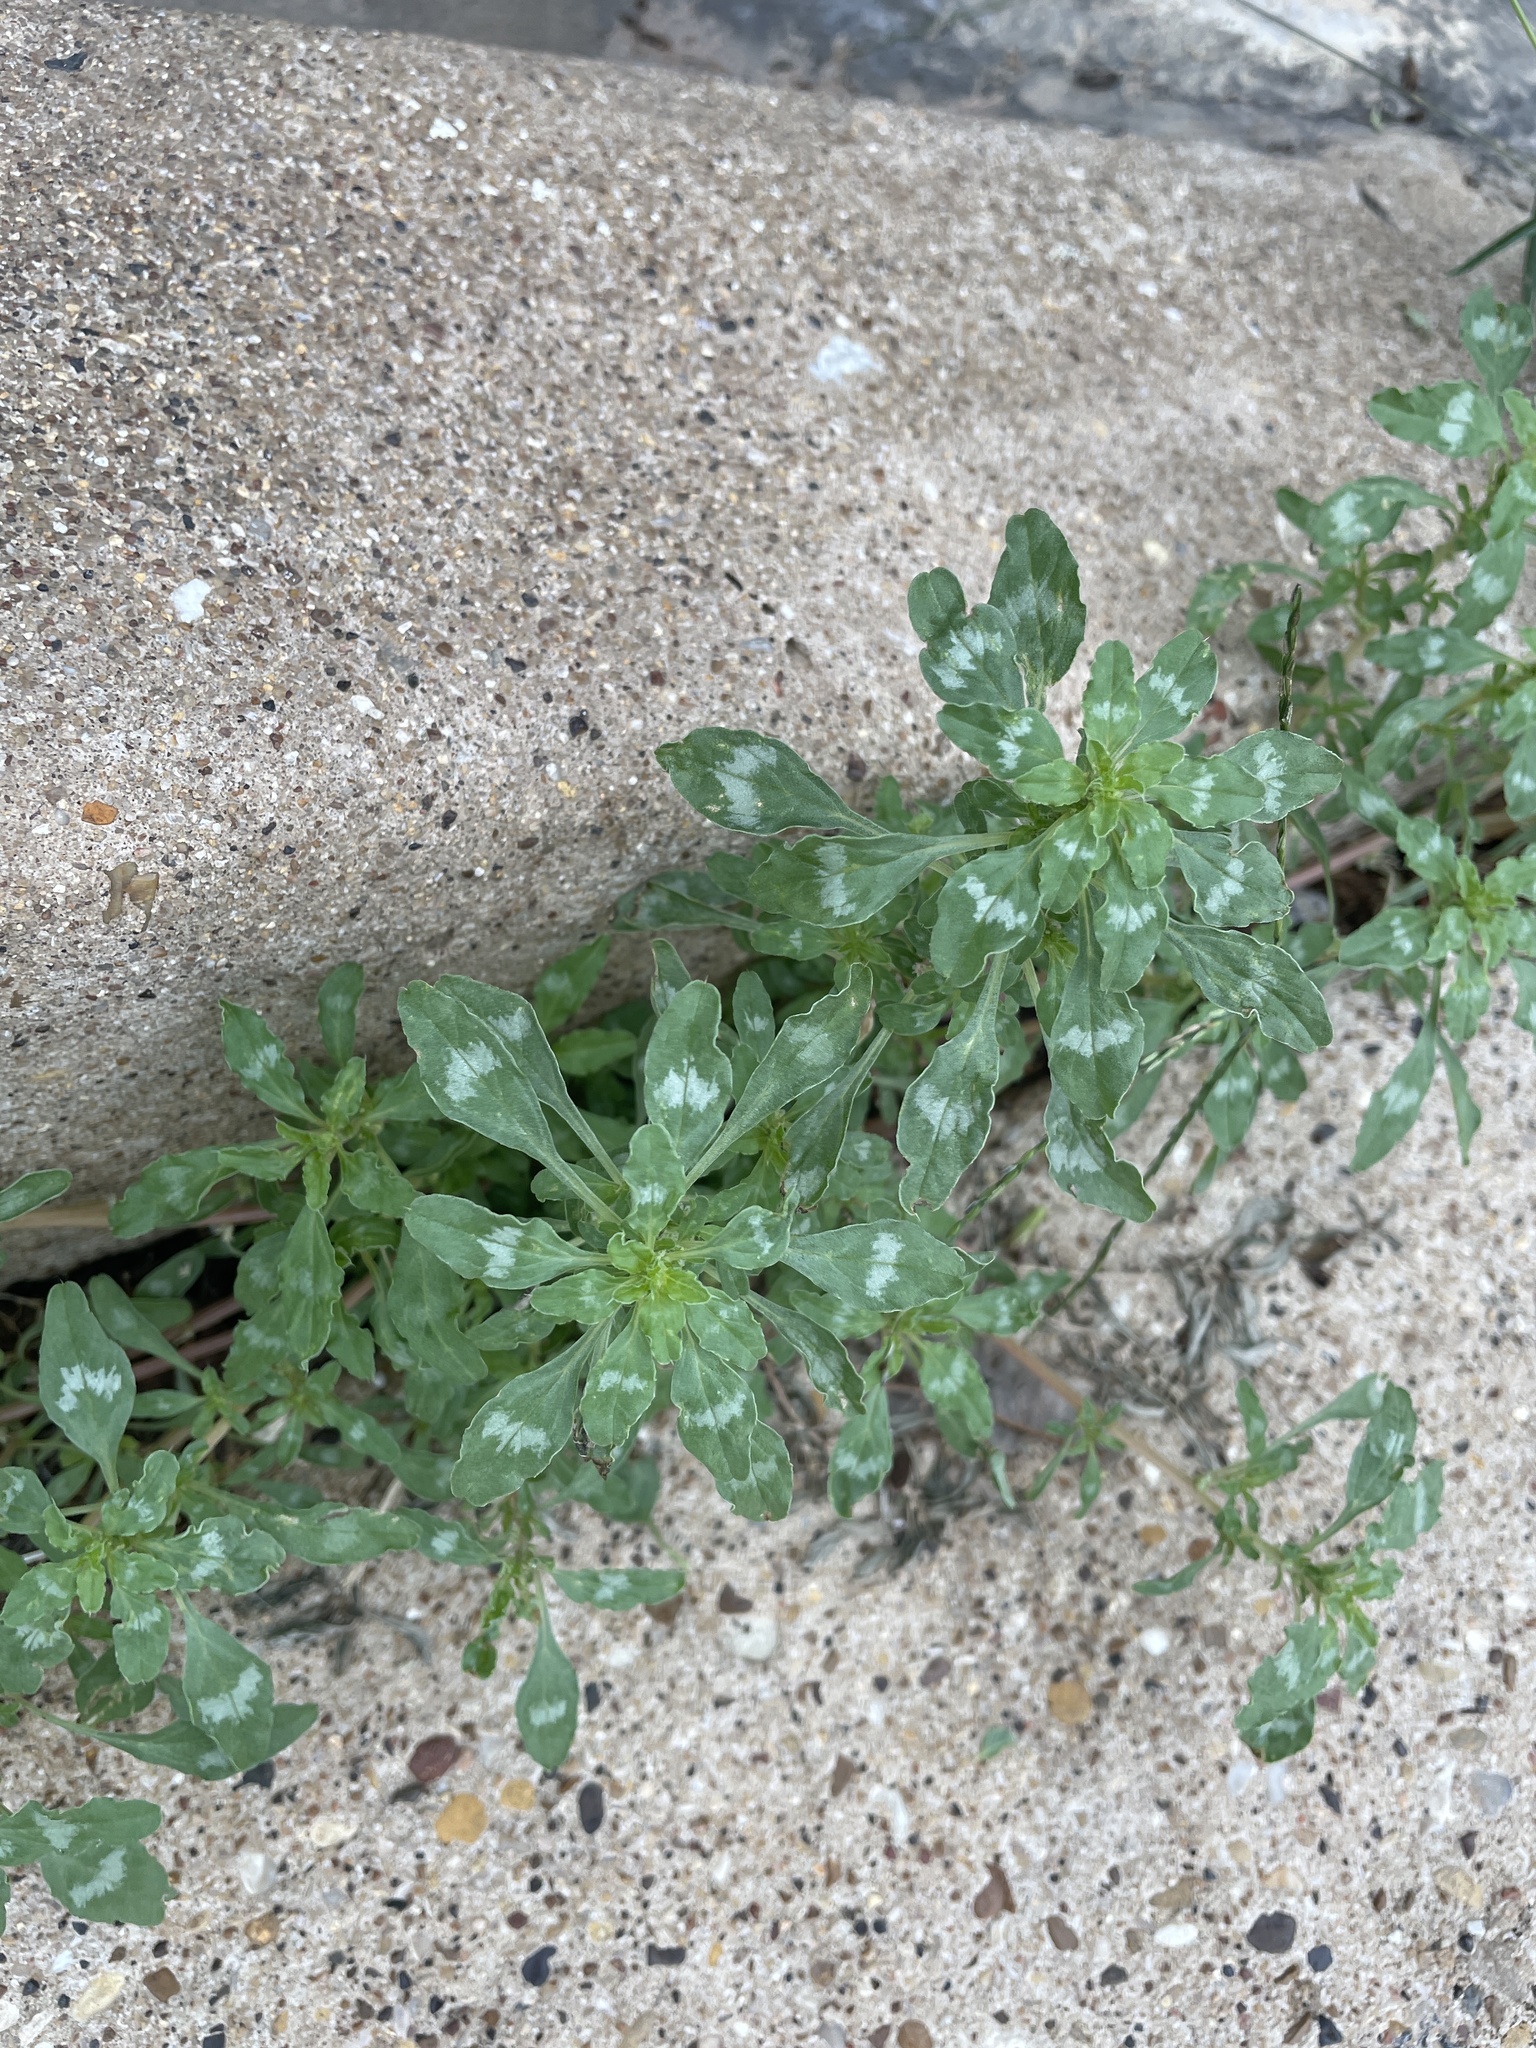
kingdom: Plantae
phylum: Tracheophyta
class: Magnoliopsida
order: Caryophyllales
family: Amaranthaceae
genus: Amaranthus
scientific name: Amaranthus polygonoides
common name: Tropical amaranth
